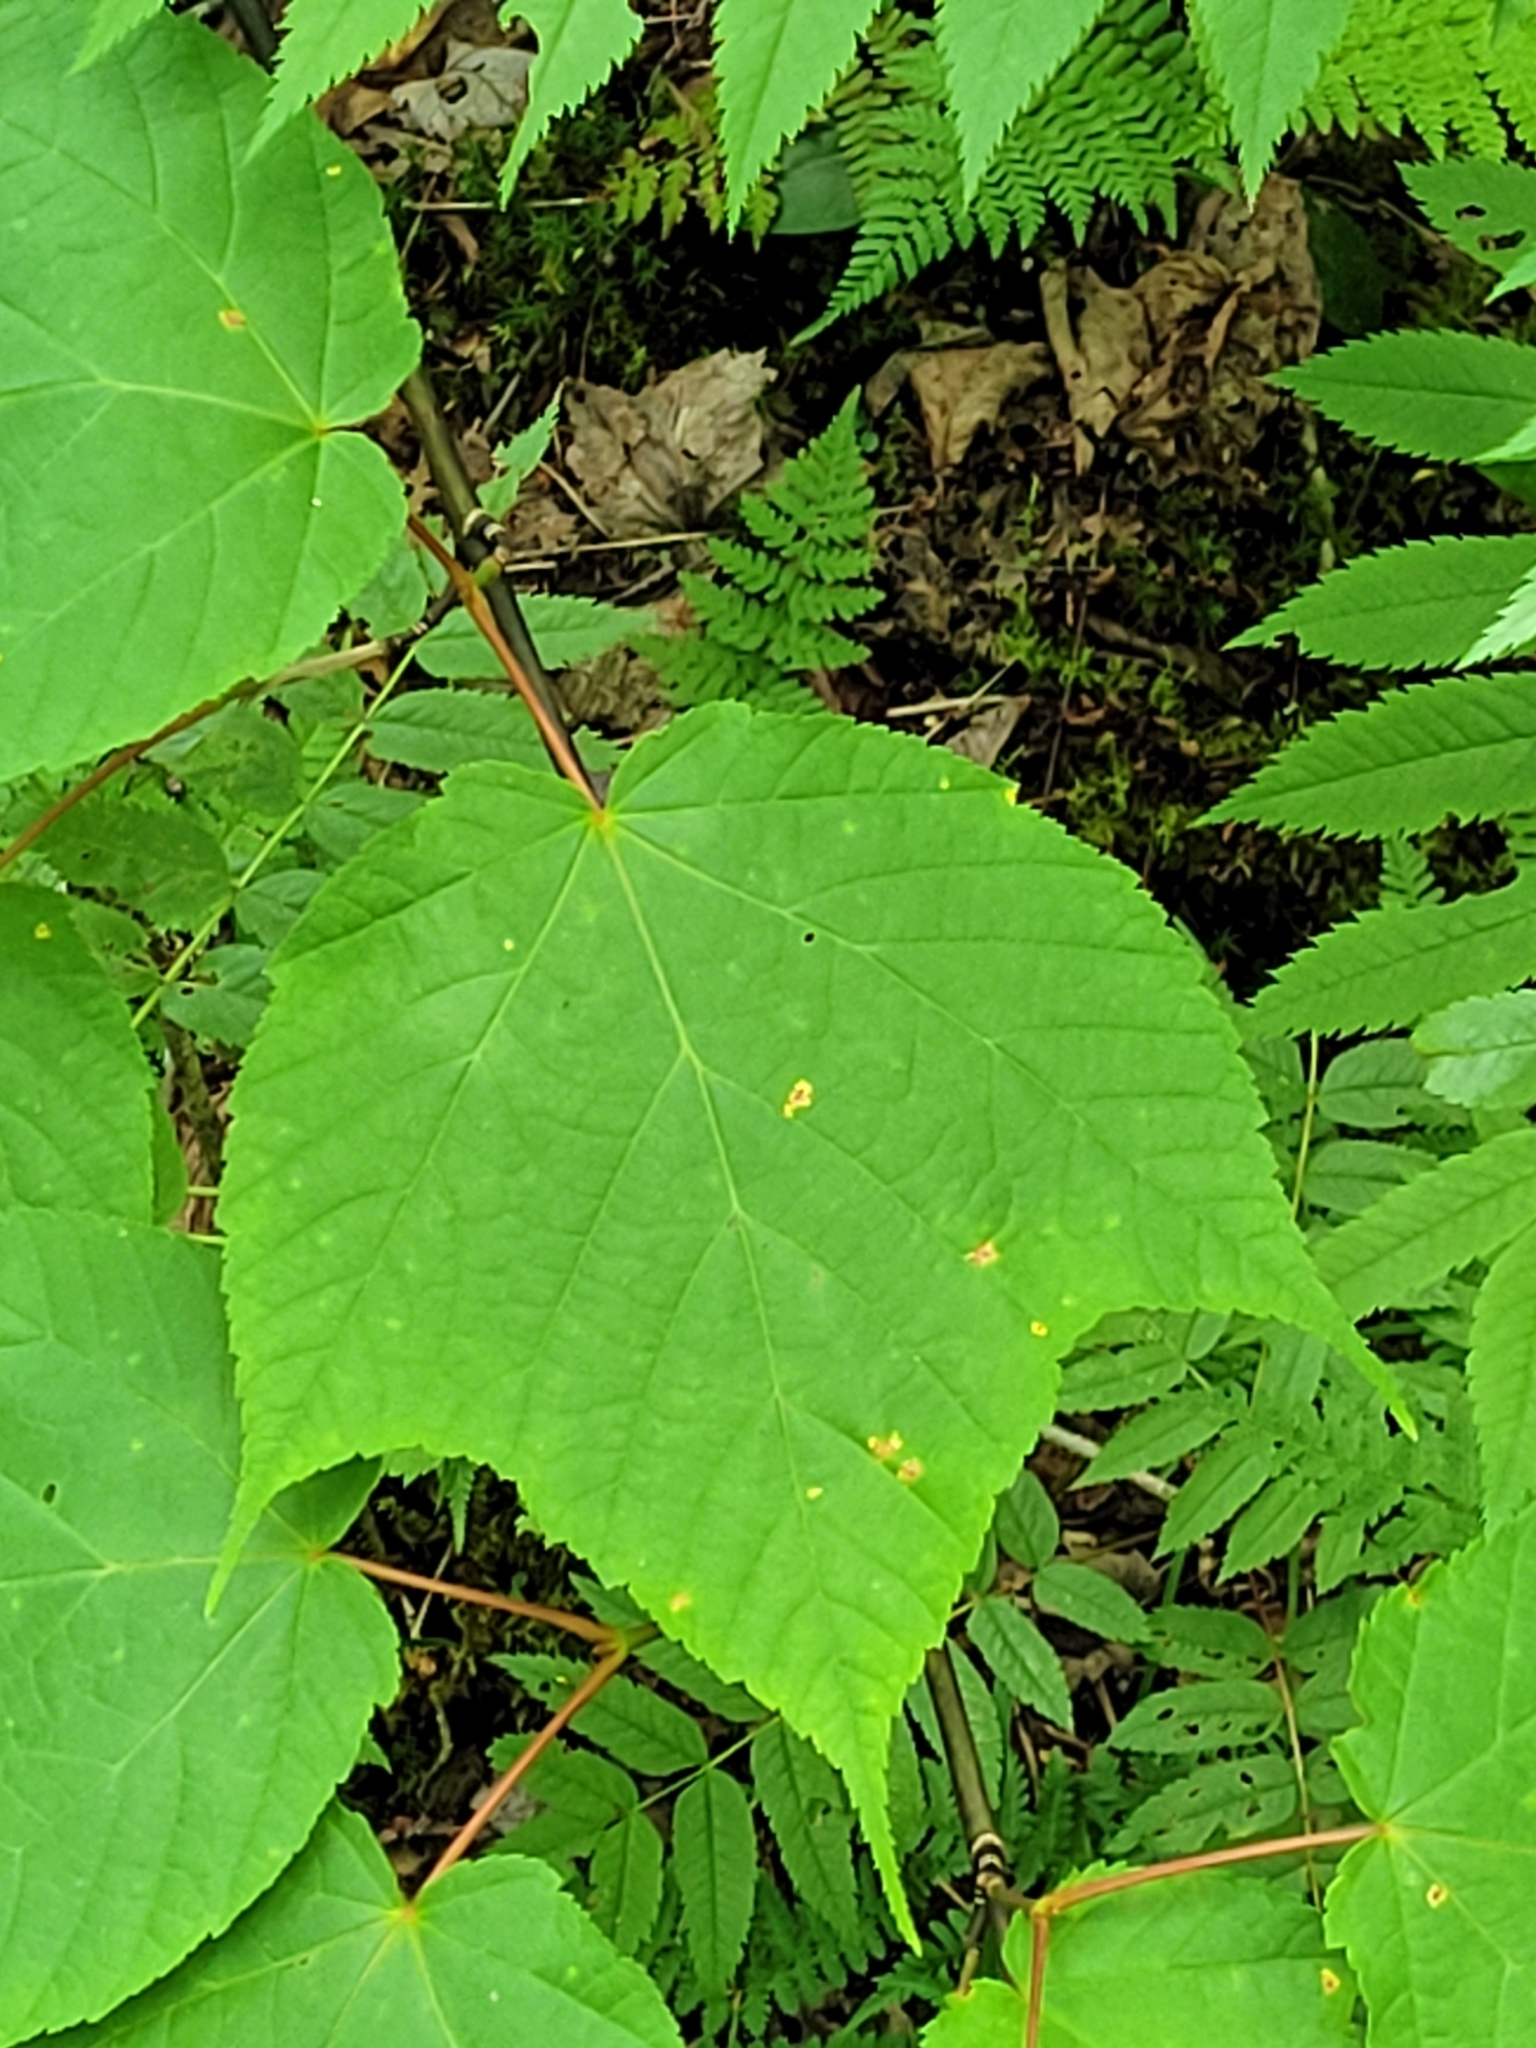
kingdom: Plantae
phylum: Tracheophyta
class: Magnoliopsida
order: Sapindales
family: Sapindaceae
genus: Acer
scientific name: Acer pensylvanicum
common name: Moosewood
